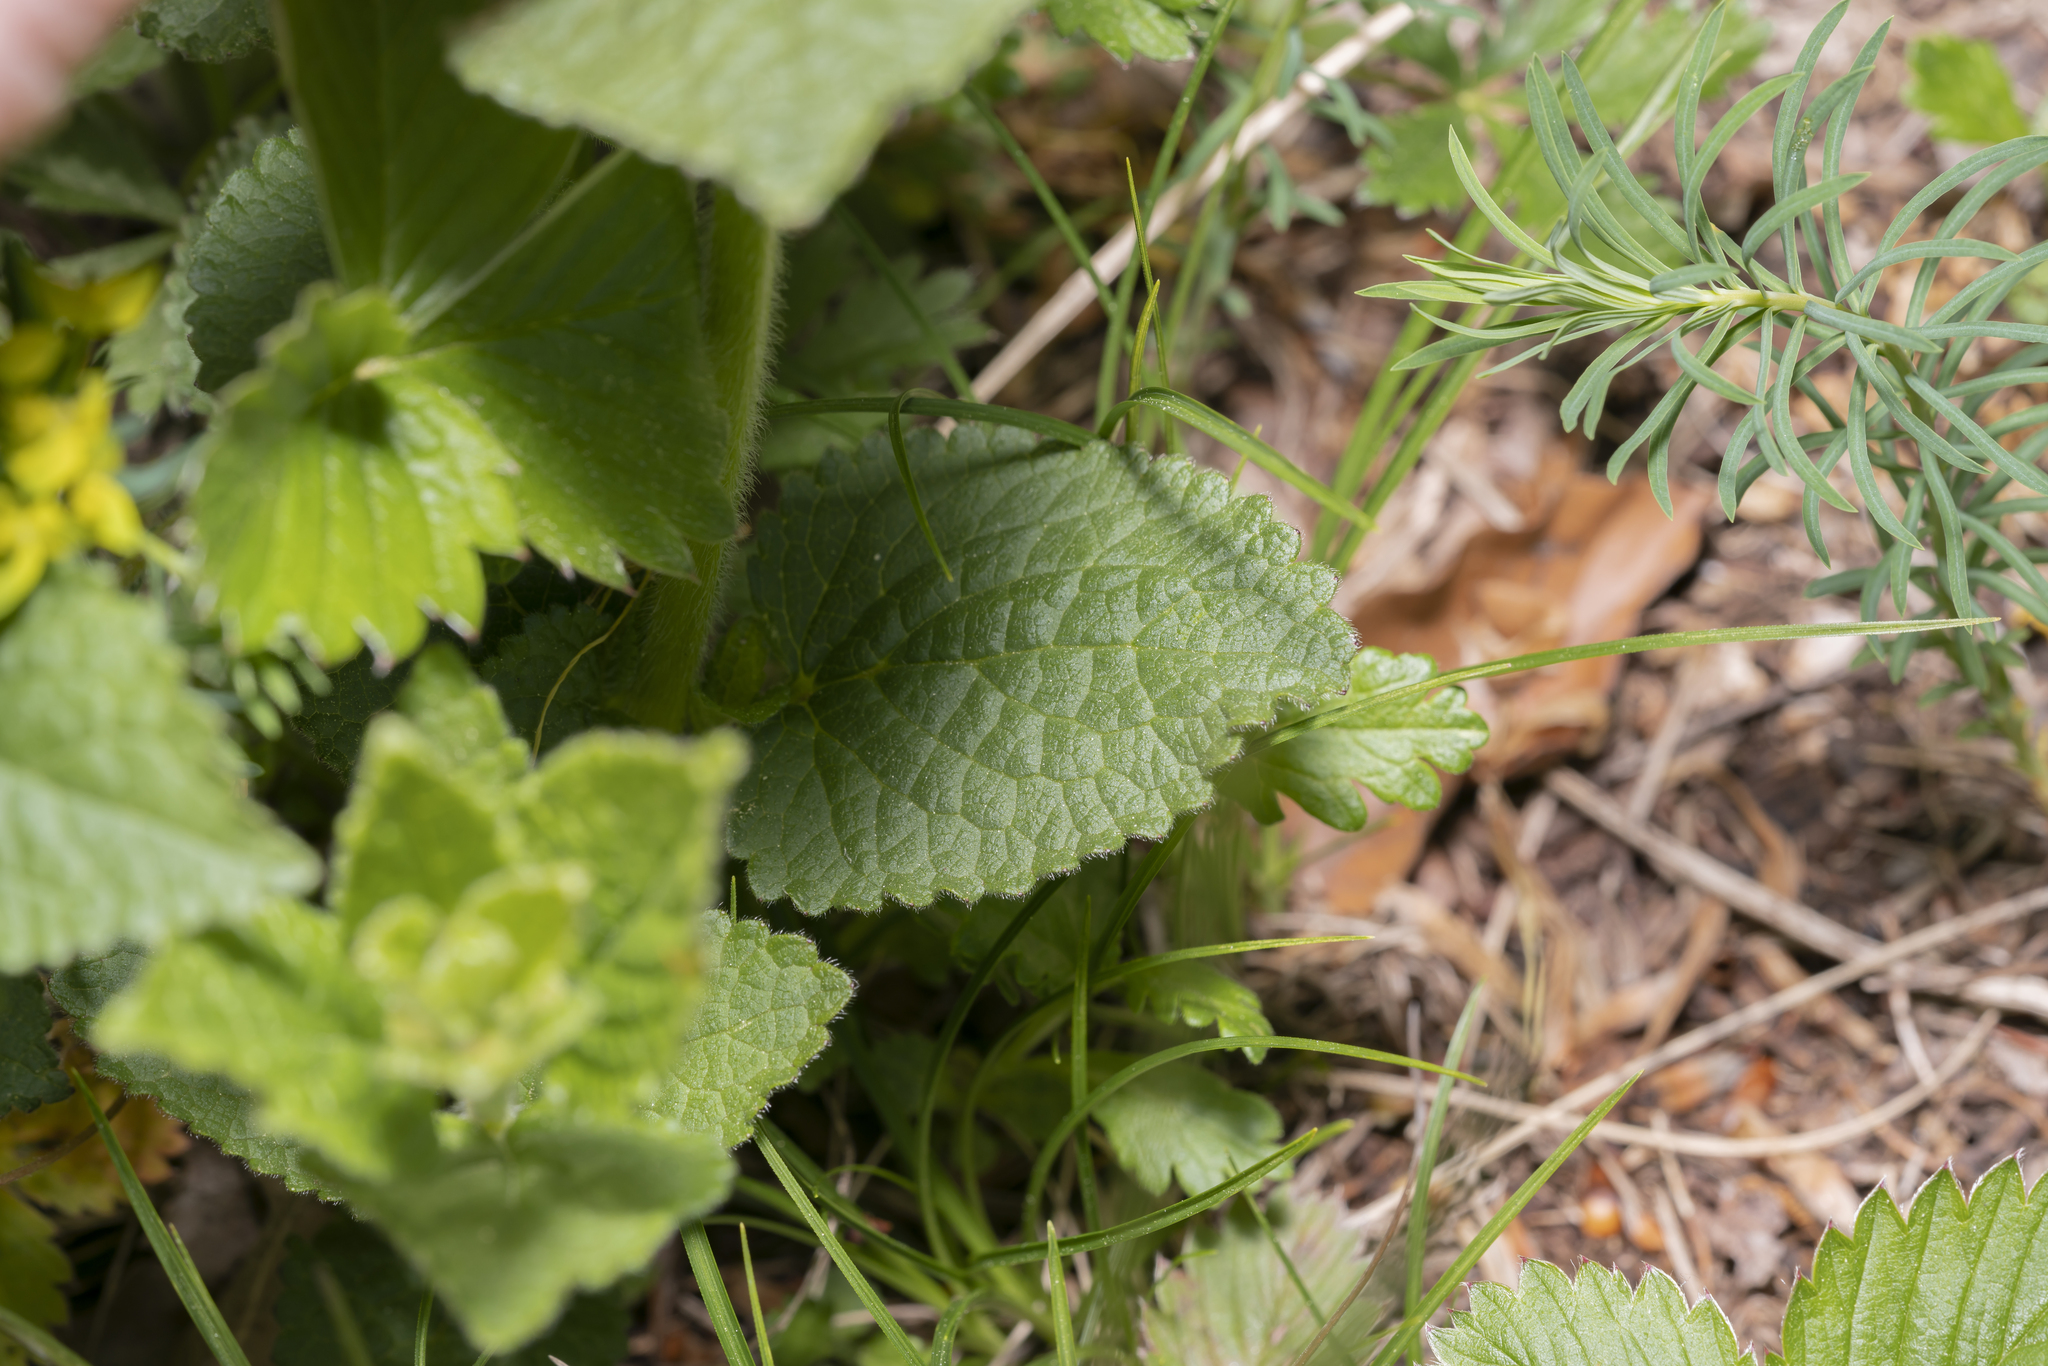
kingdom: Plantae
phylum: Tracheophyta
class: Magnoliopsida
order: Lamiales
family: Lamiaceae
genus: Melittis
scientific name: Melittis melissophyllum
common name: Bastard balm
